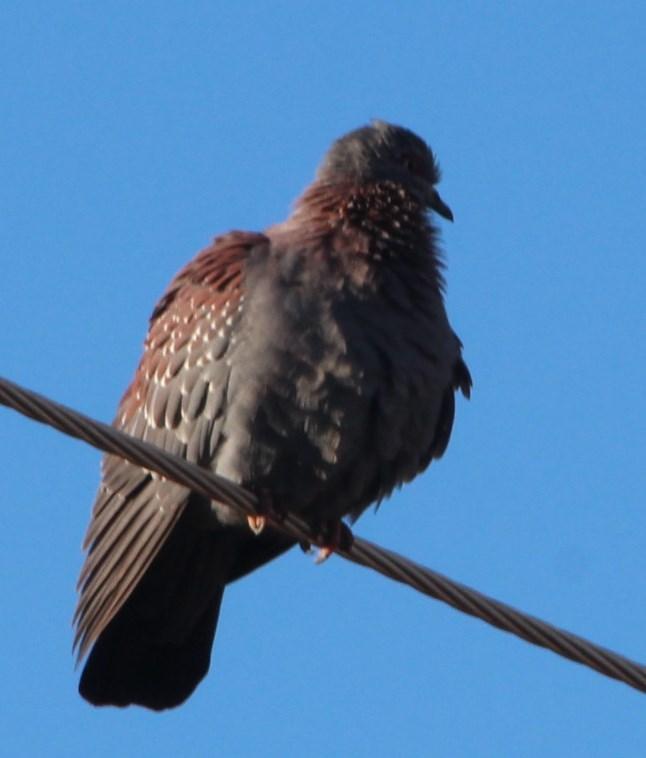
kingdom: Animalia
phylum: Chordata
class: Aves
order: Columbiformes
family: Columbidae
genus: Columba
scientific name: Columba guinea
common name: Speckled pigeon
